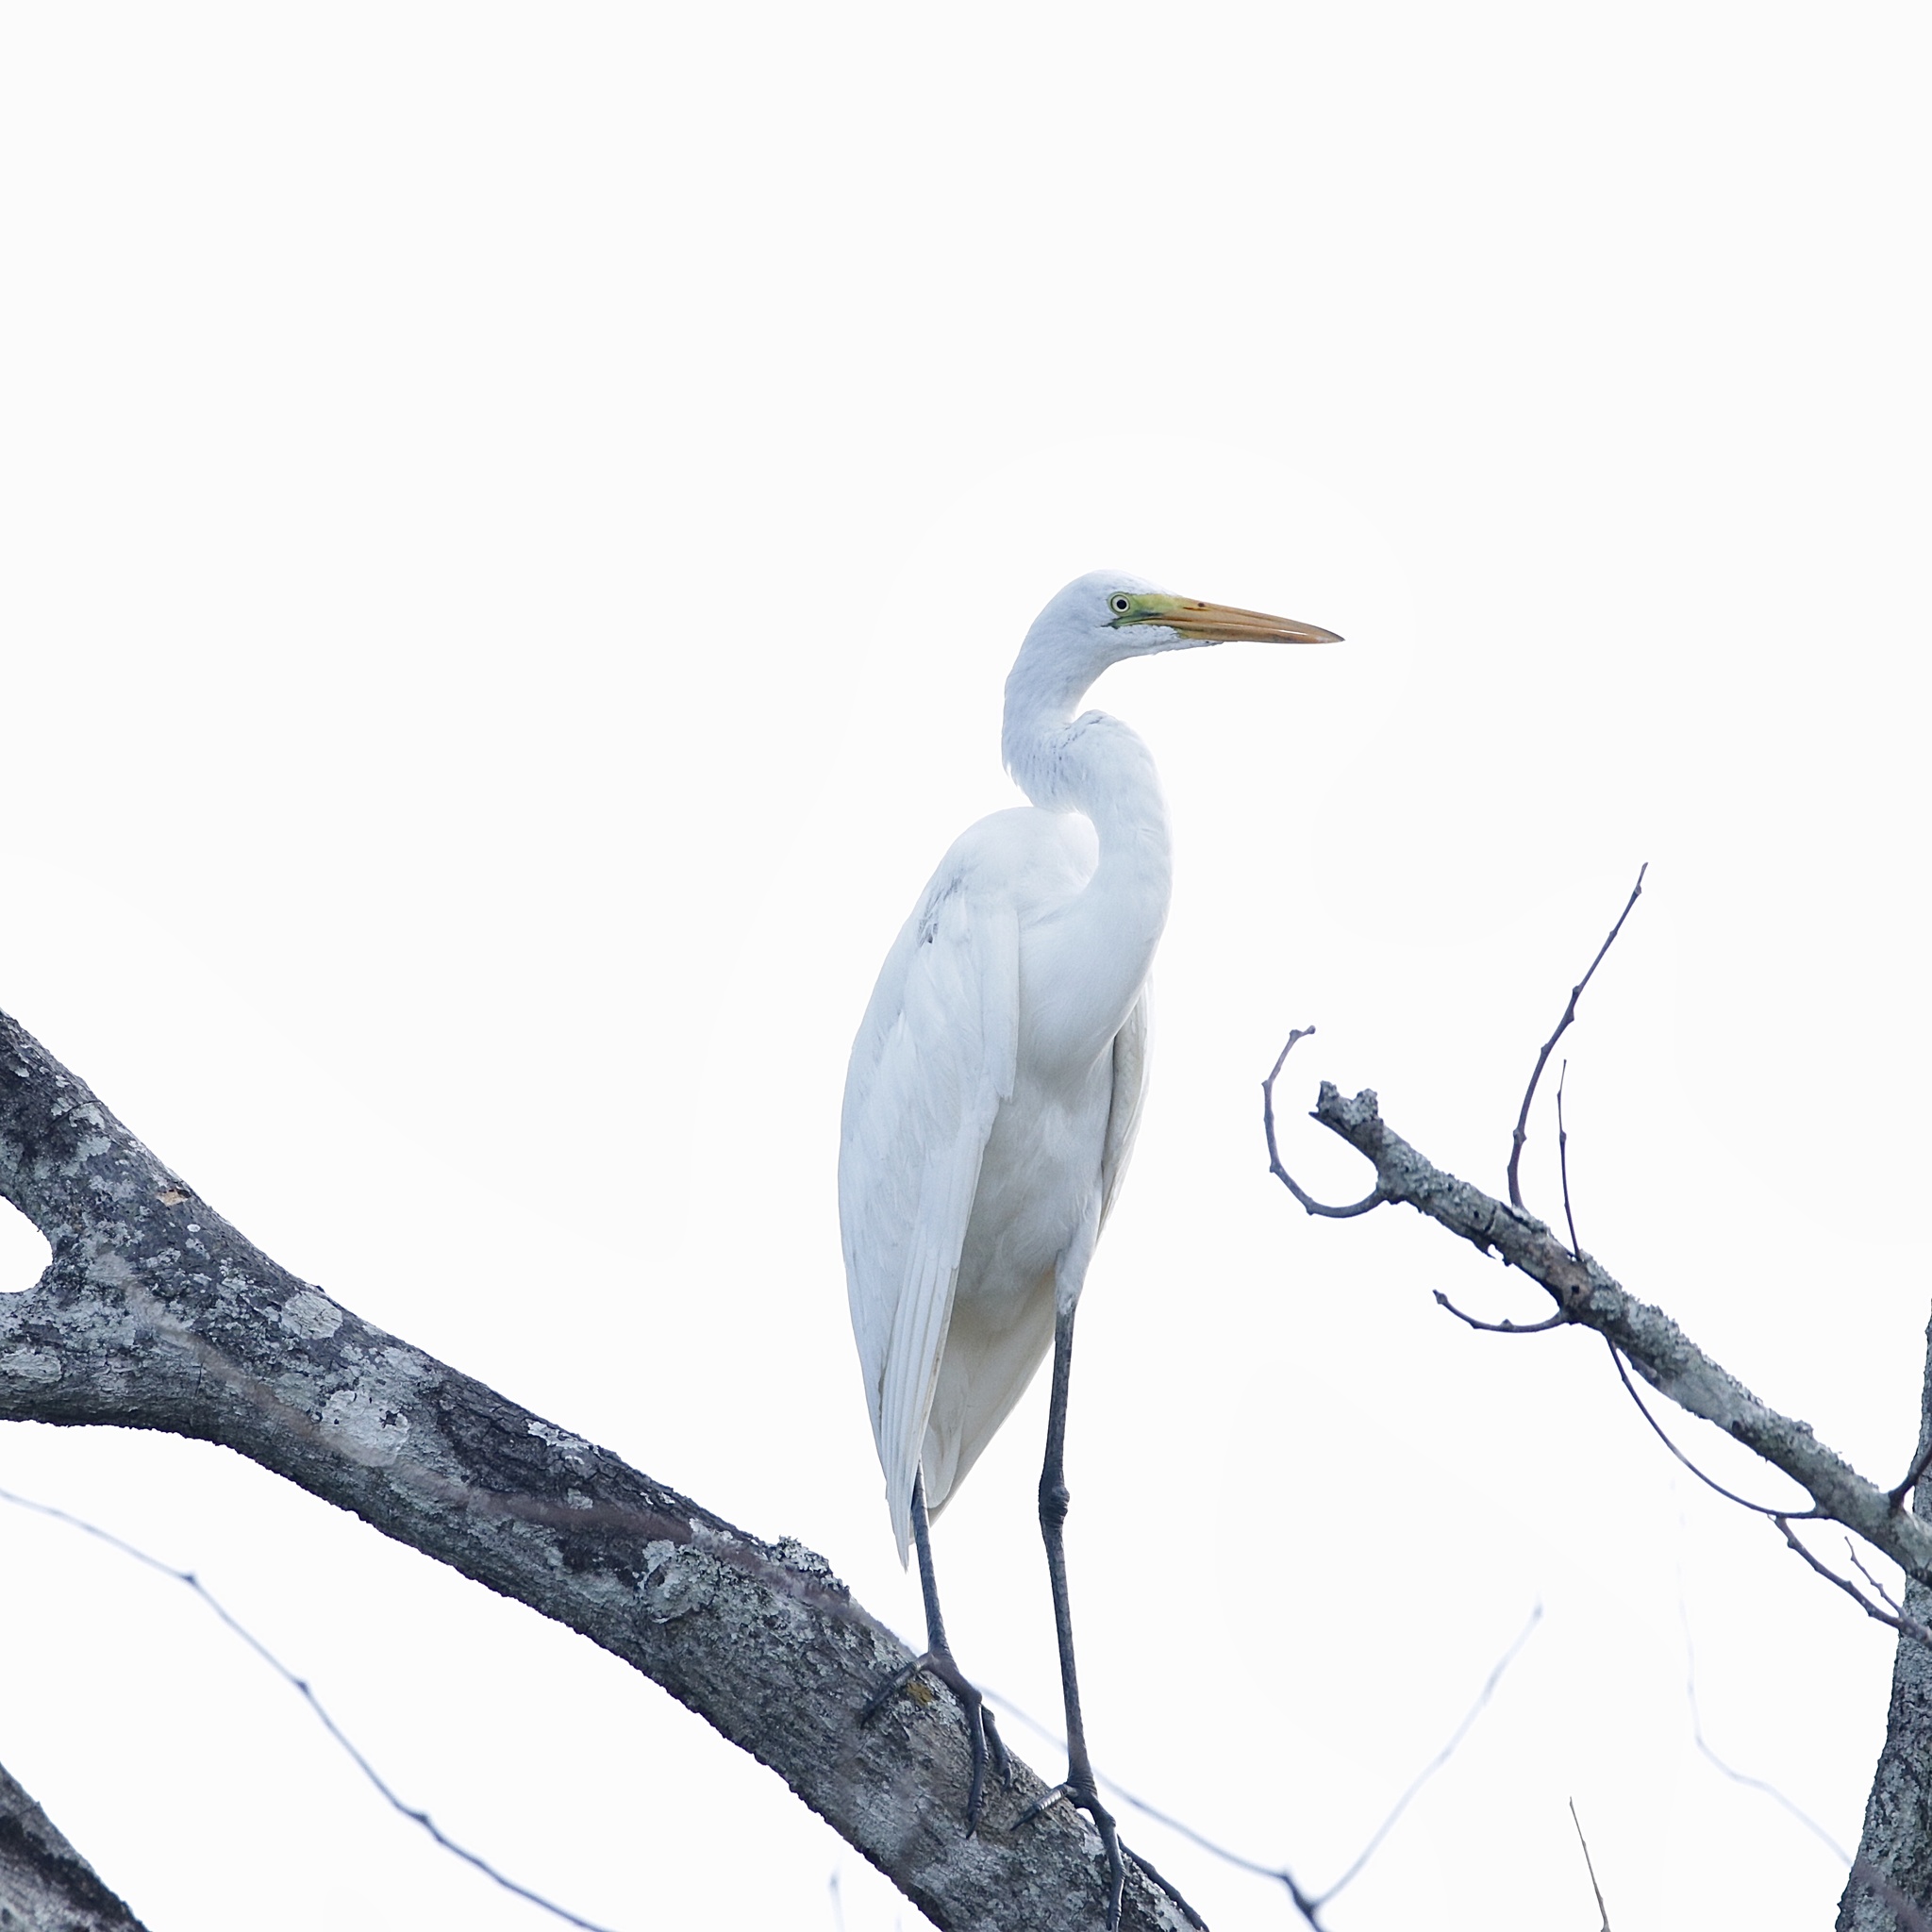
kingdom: Animalia
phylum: Chordata
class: Aves
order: Pelecaniformes
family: Ardeidae
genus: Ardea
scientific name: Ardea alba
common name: Great egret
